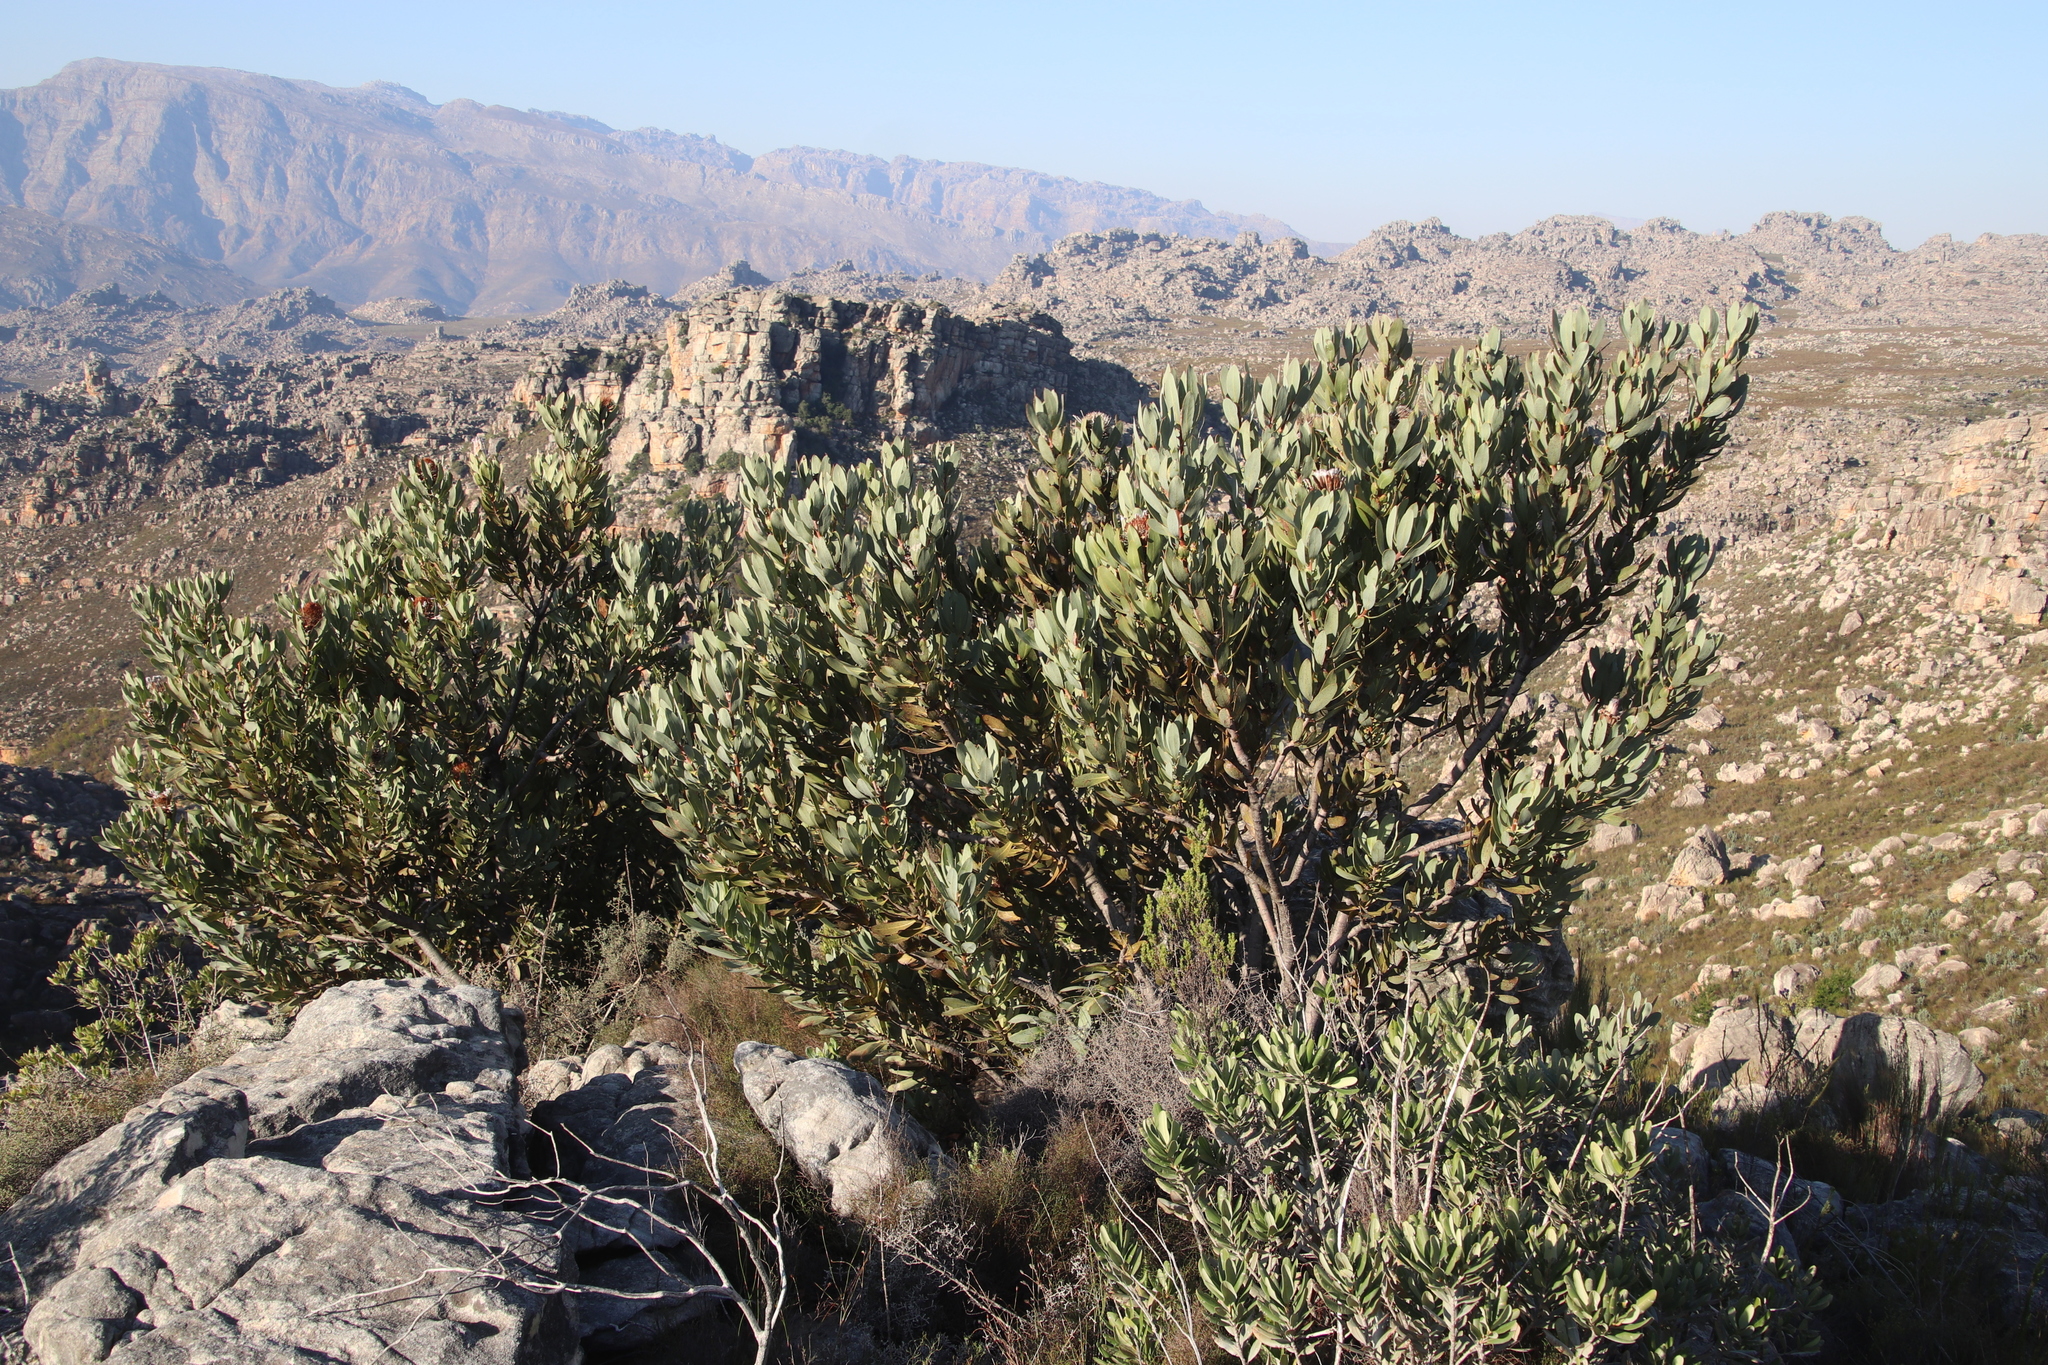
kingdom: Plantae
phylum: Tracheophyta
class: Magnoliopsida
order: Proteales
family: Proteaceae
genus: Protea
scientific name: Protea laurifolia
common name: Grey-leaf sugarbsh
